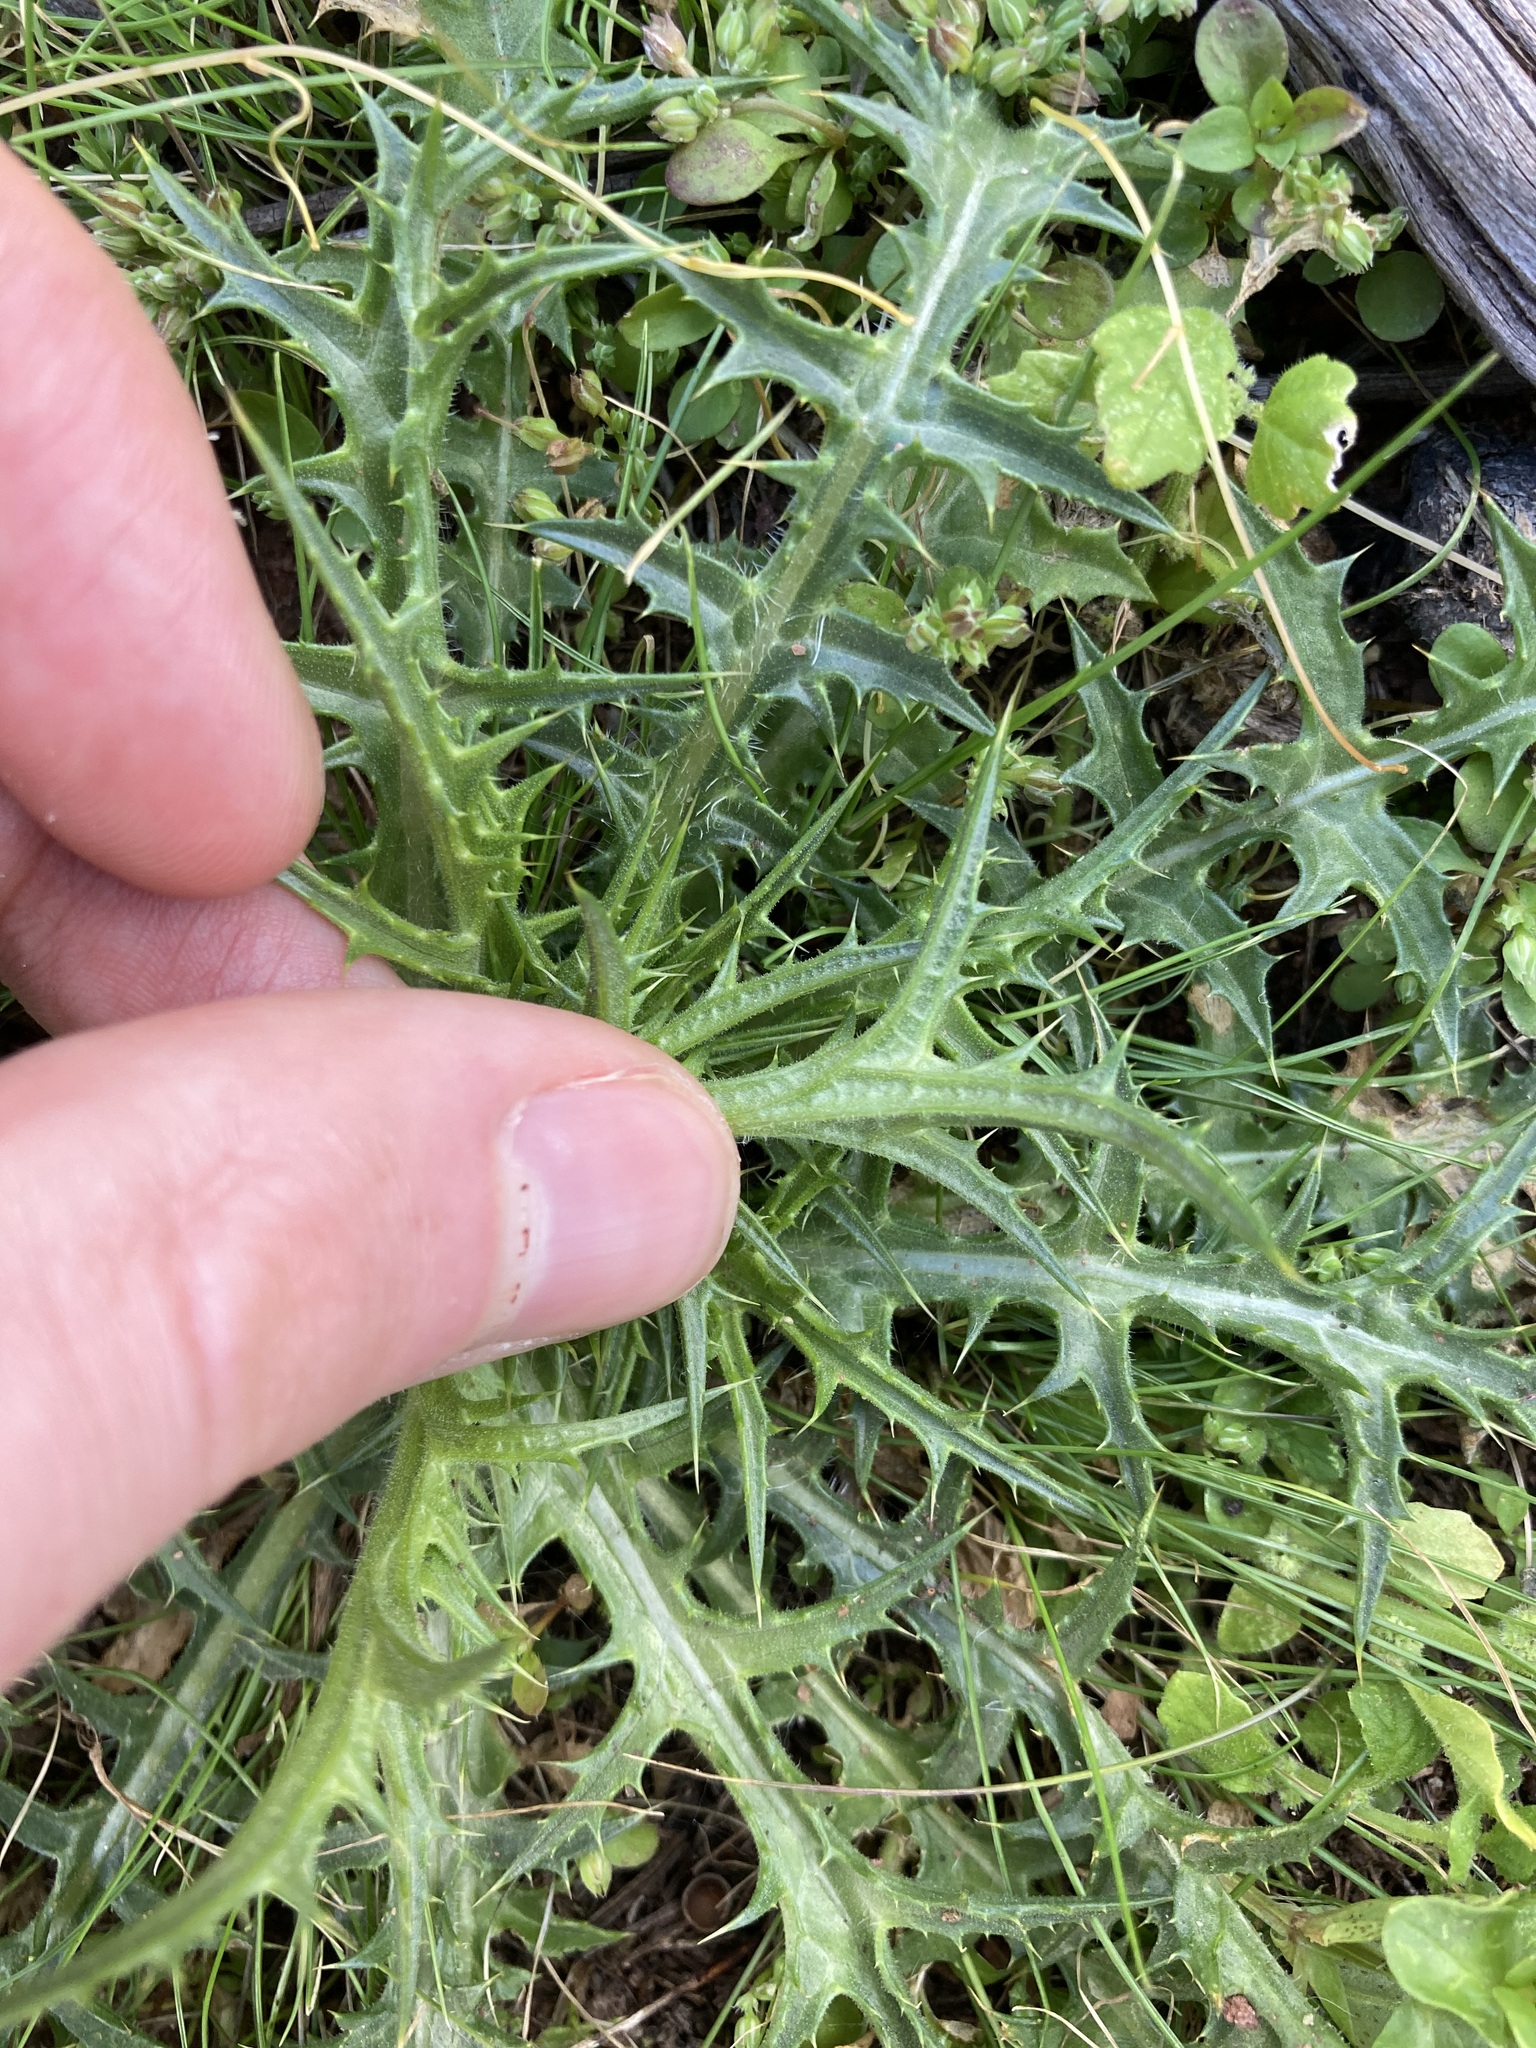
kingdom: Plantae
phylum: Tracheophyta
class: Magnoliopsida
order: Asterales
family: Asteraceae
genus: Carthamus
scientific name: Carthamus lanatus
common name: Downy safflower
